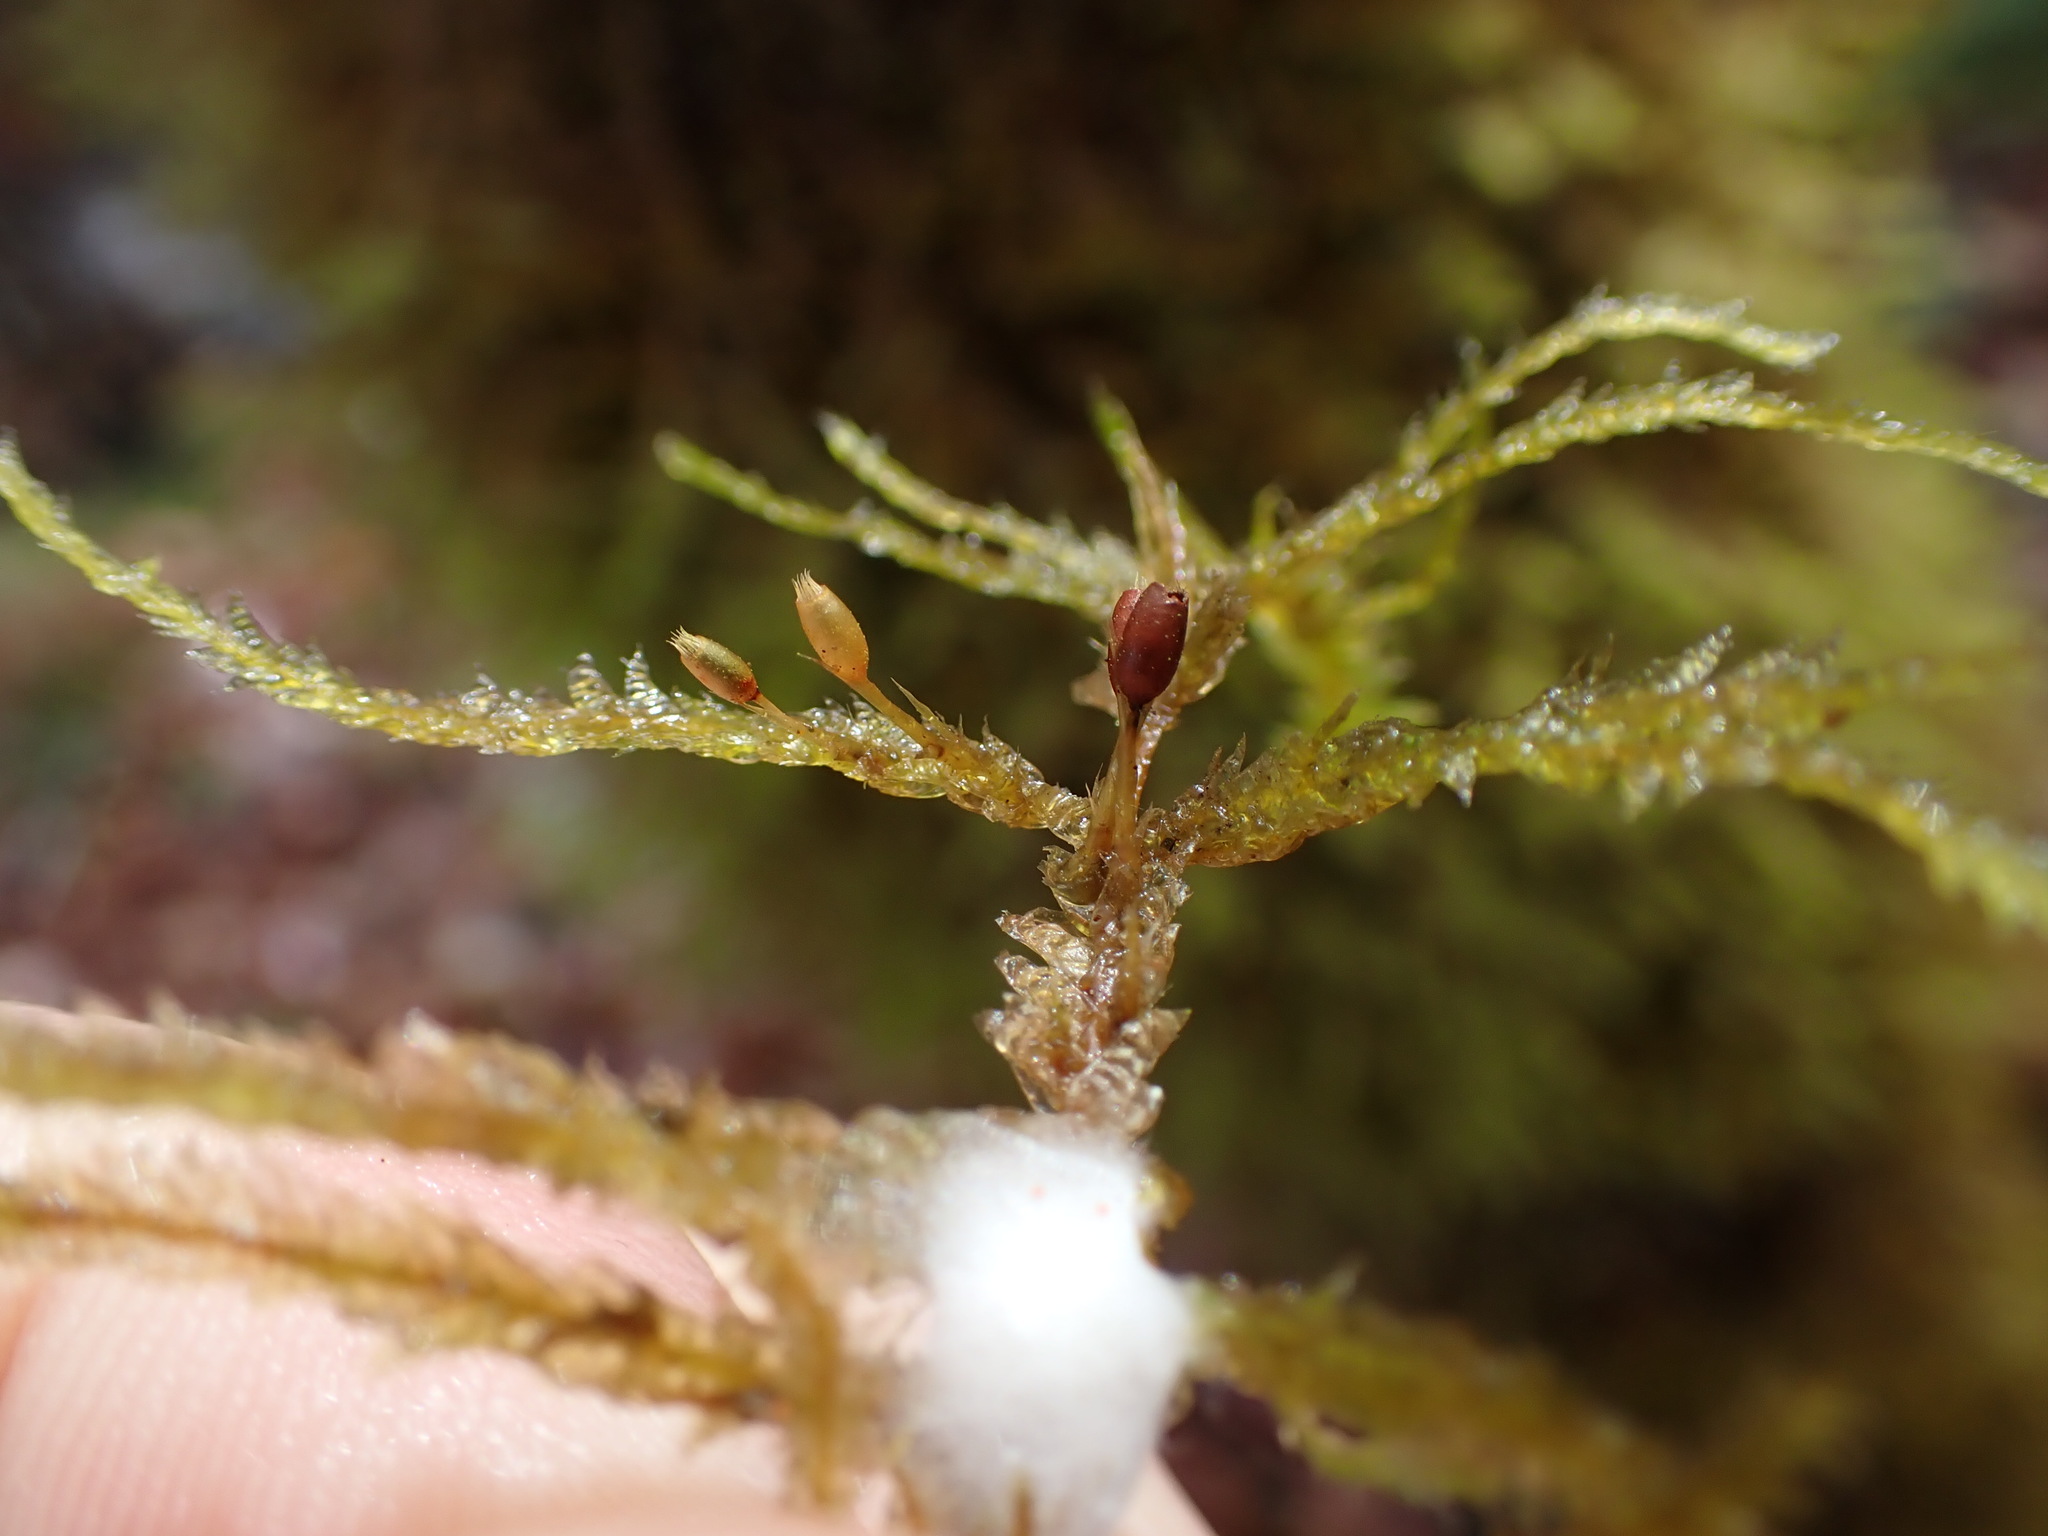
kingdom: Plantae
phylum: Bryophyta
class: Bryopsida
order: Hypnales
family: Neckeraceae
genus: Neckera
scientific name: Neckera douglasii
